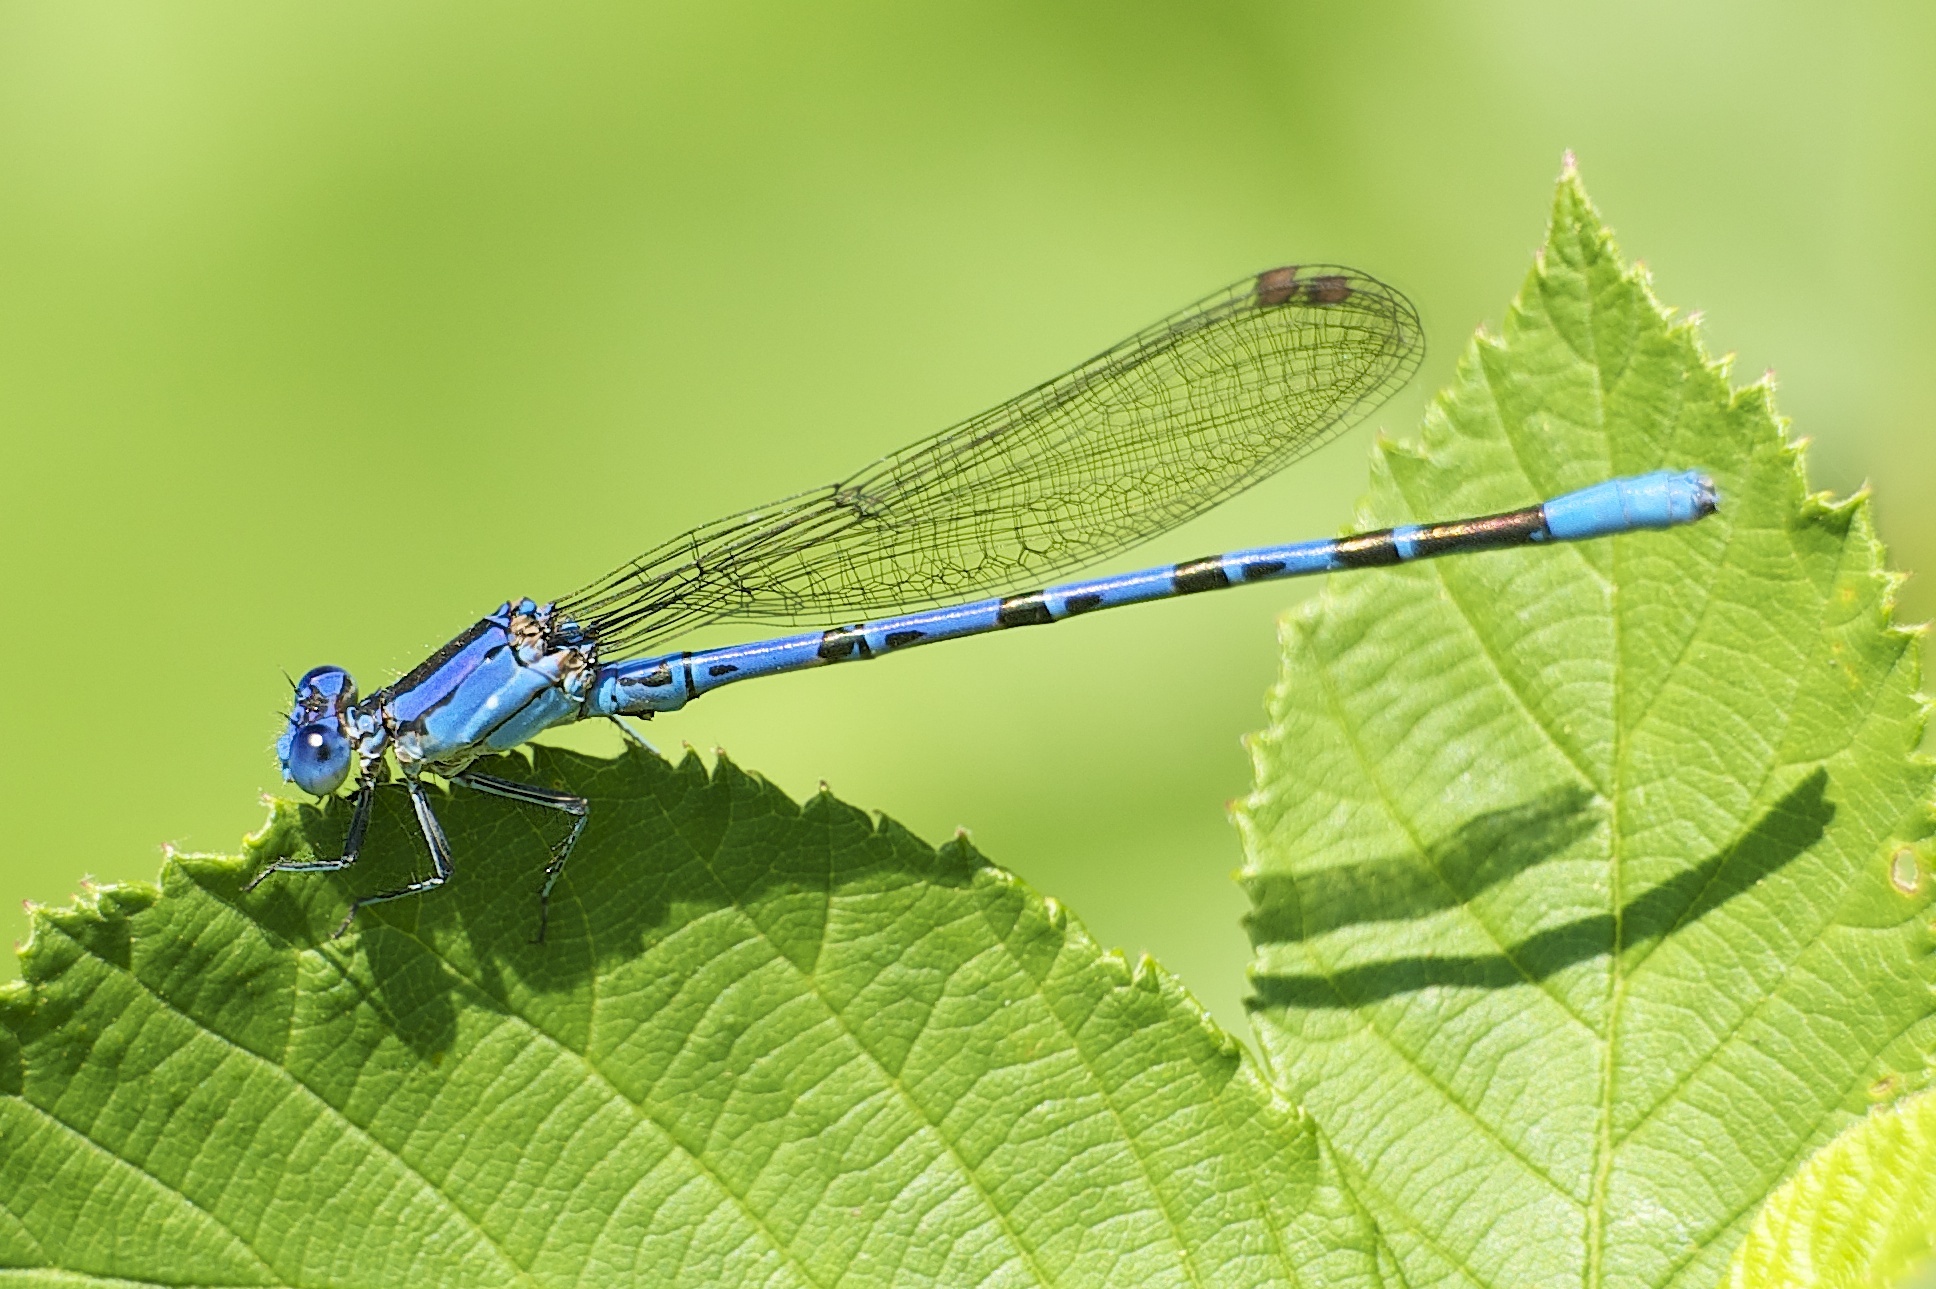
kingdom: Animalia
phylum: Arthropoda
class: Insecta
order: Odonata
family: Coenagrionidae
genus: Argia
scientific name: Argia vivida
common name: Vivid dancer
